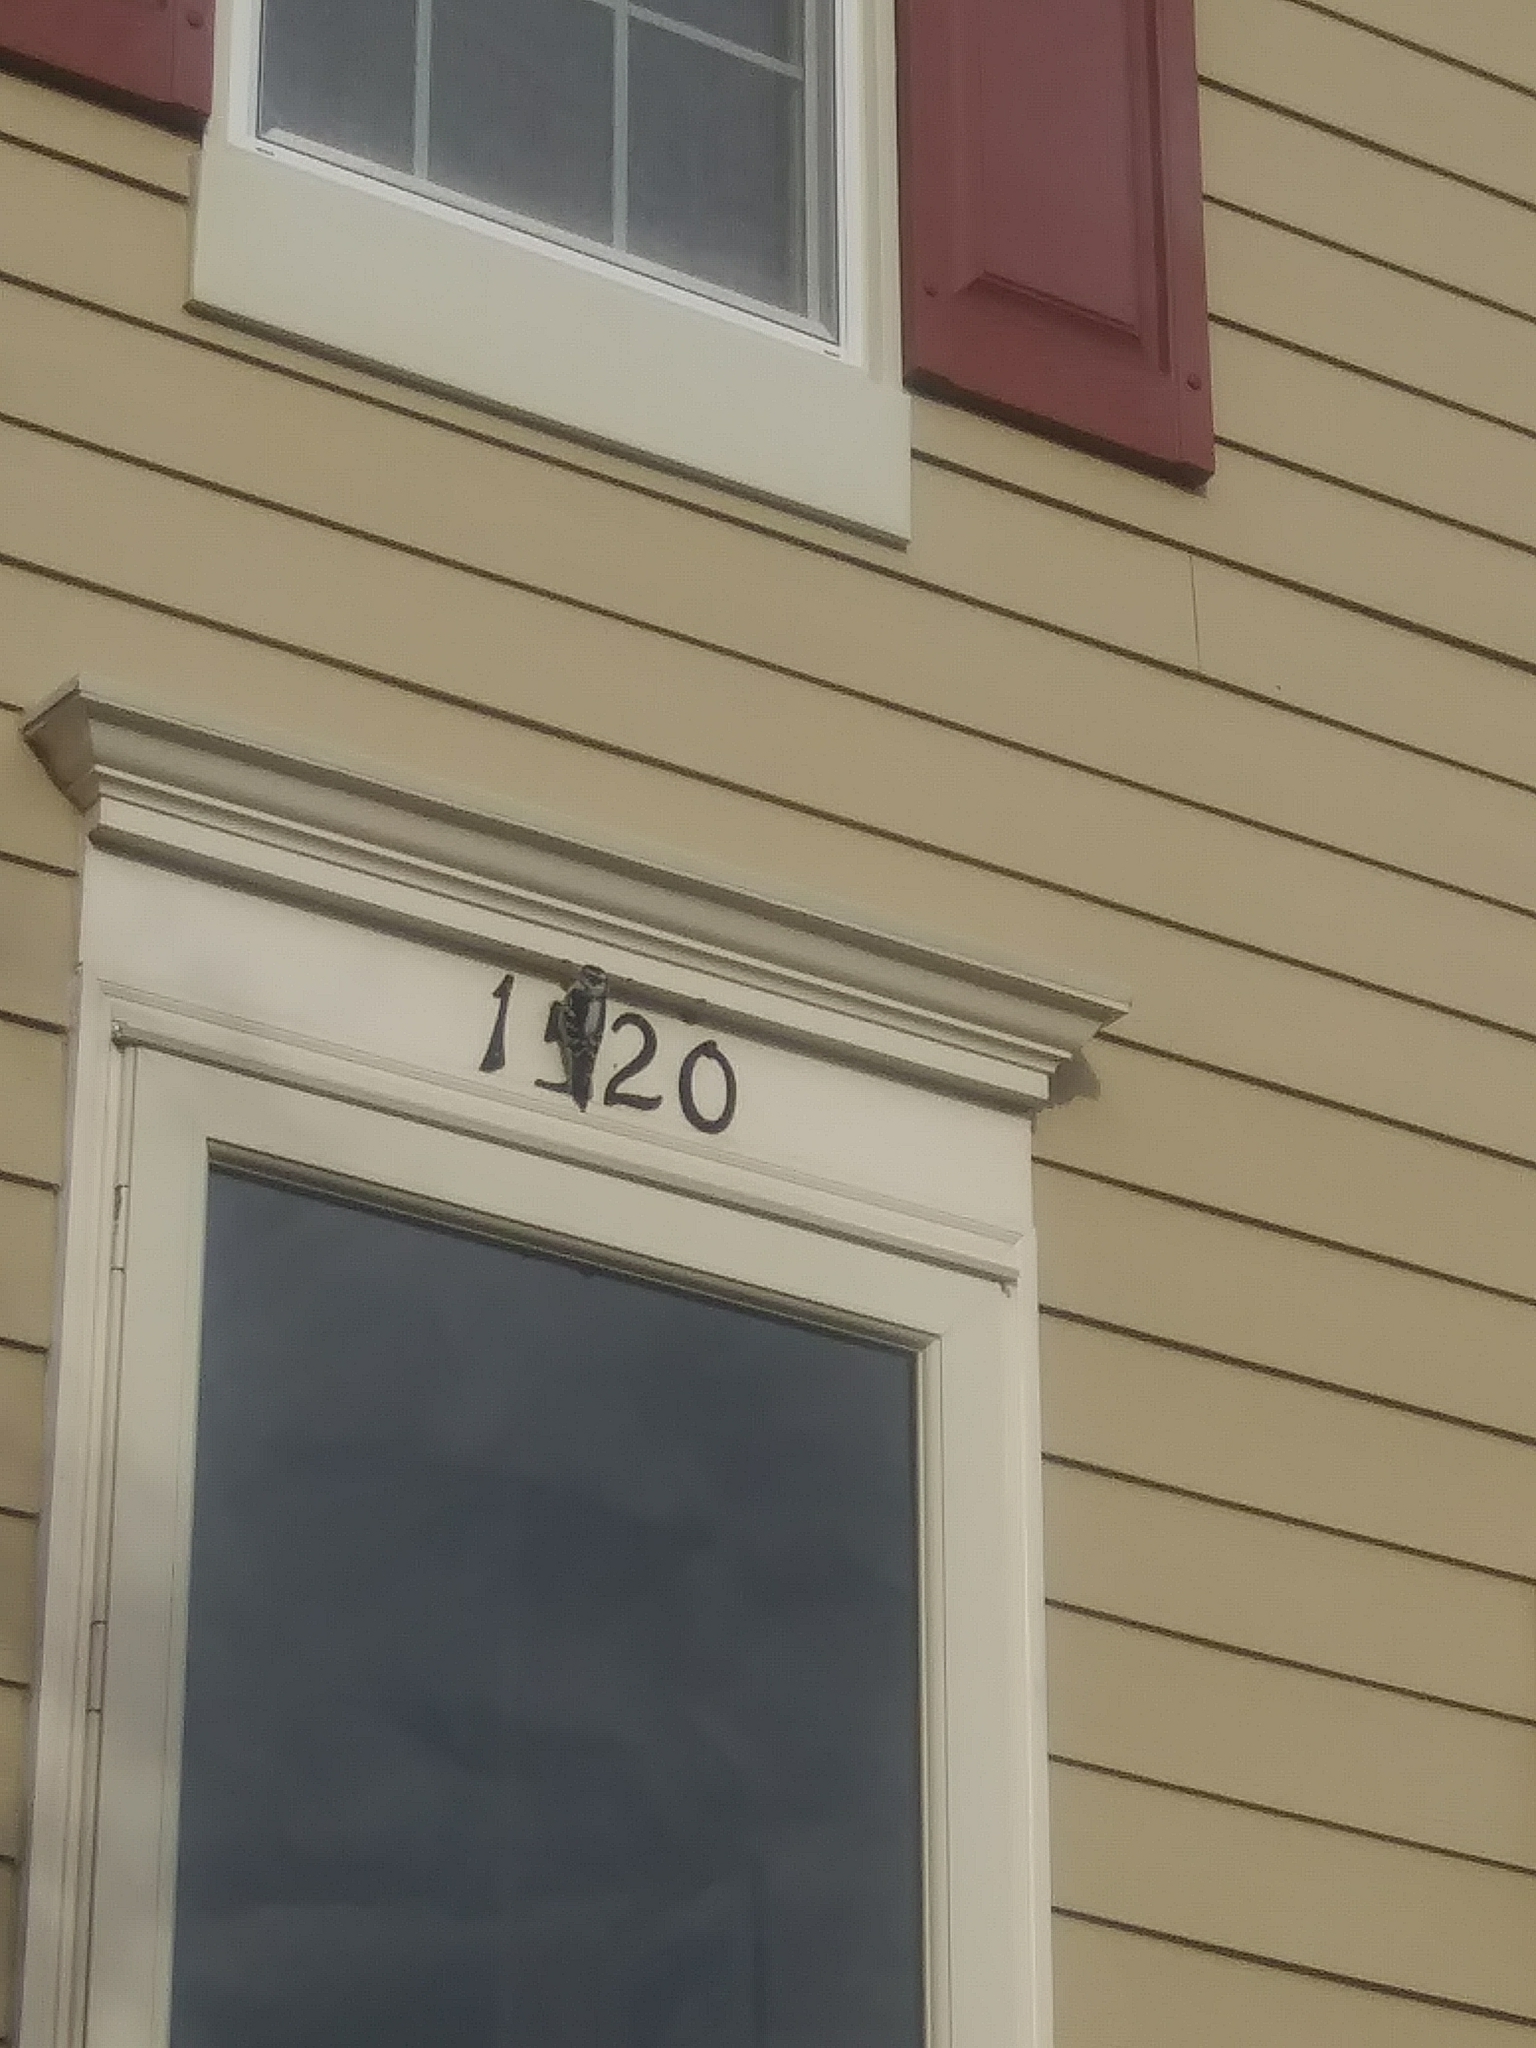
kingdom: Animalia
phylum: Chordata
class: Aves
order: Piciformes
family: Picidae
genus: Dryobates
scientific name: Dryobates pubescens
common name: Downy woodpecker
